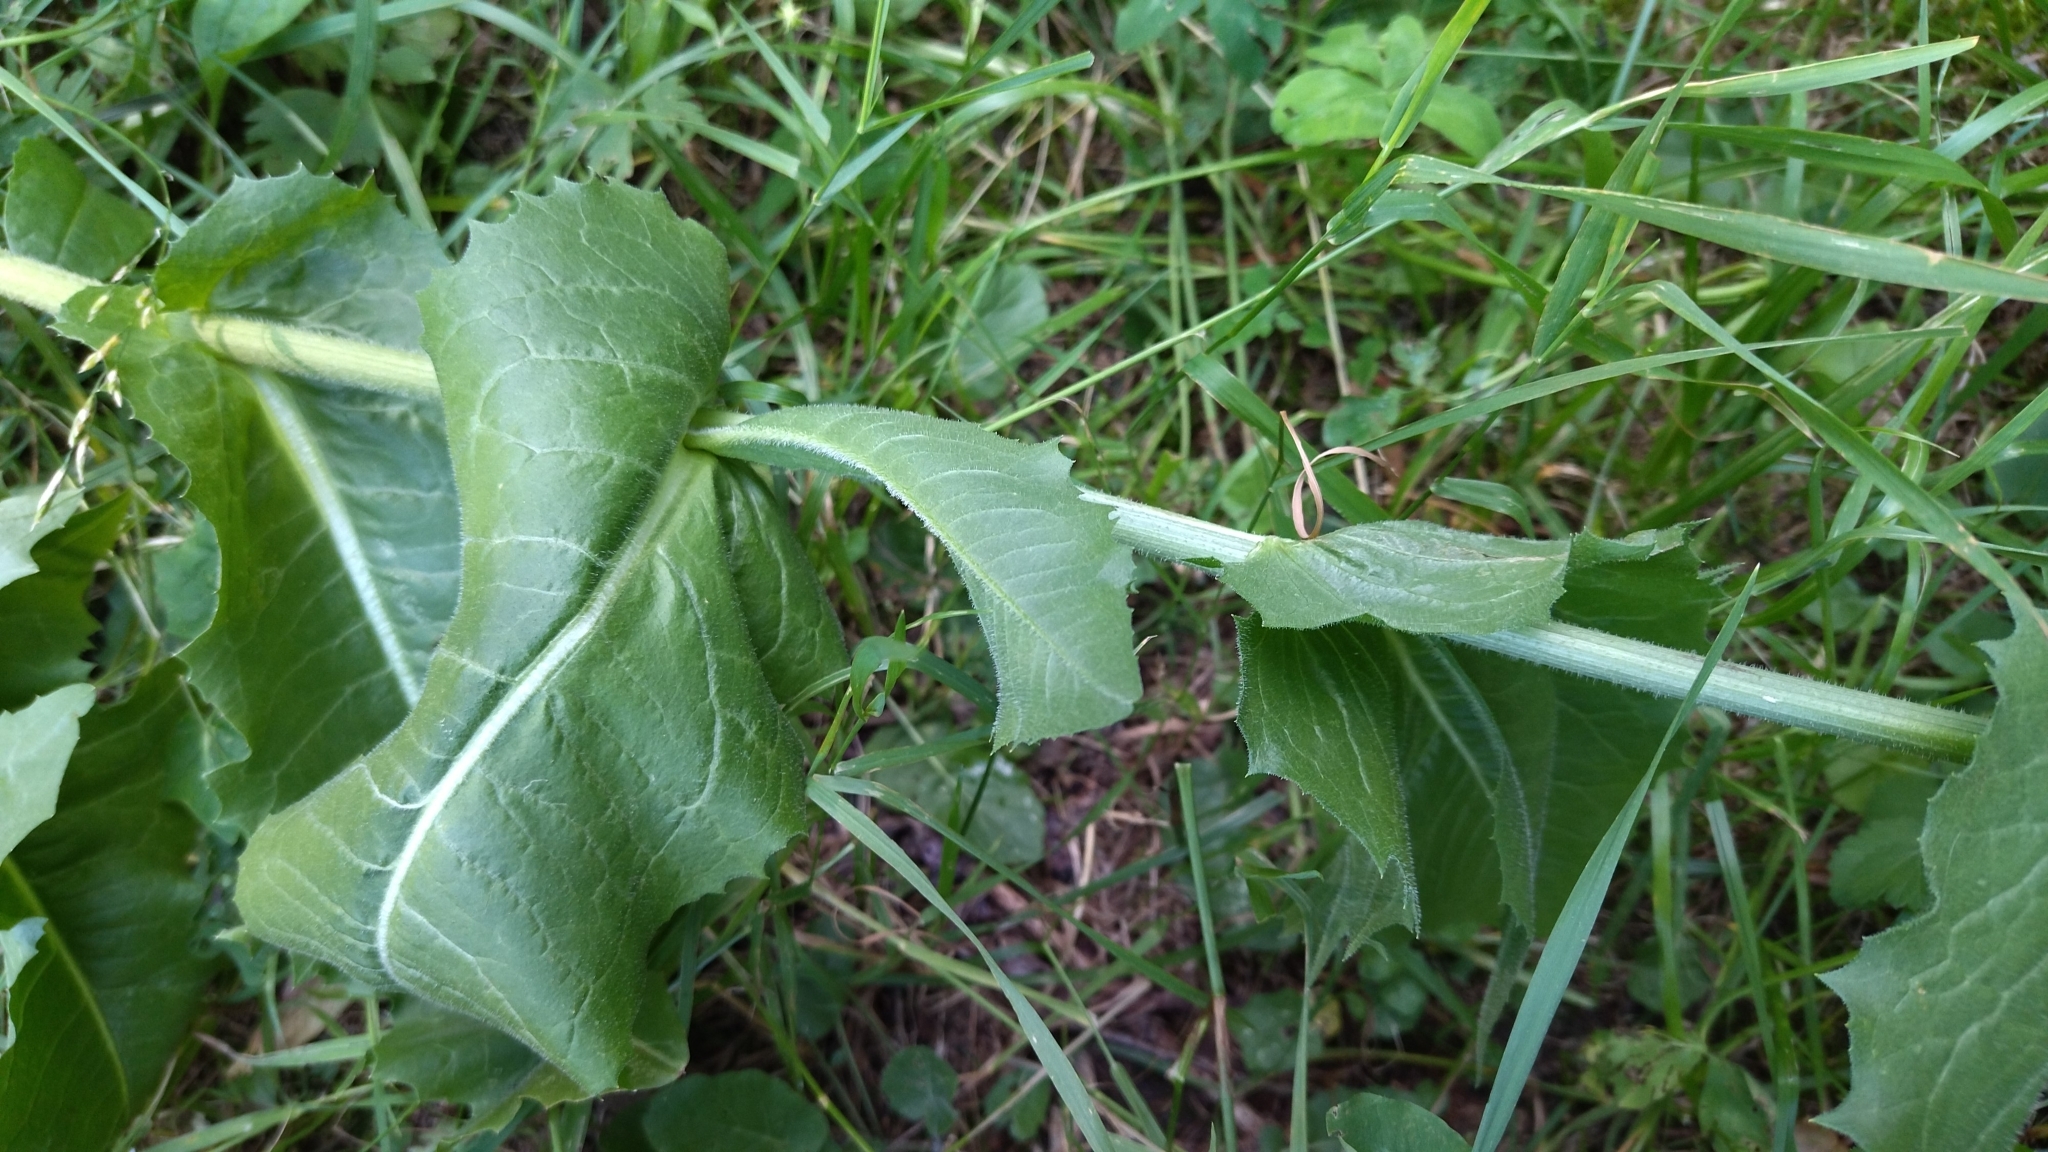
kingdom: Plantae
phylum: Tracheophyta
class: Magnoliopsida
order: Asterales
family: Asteraceae
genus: Cichorium
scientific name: Cichorium intybus
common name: Chicory
